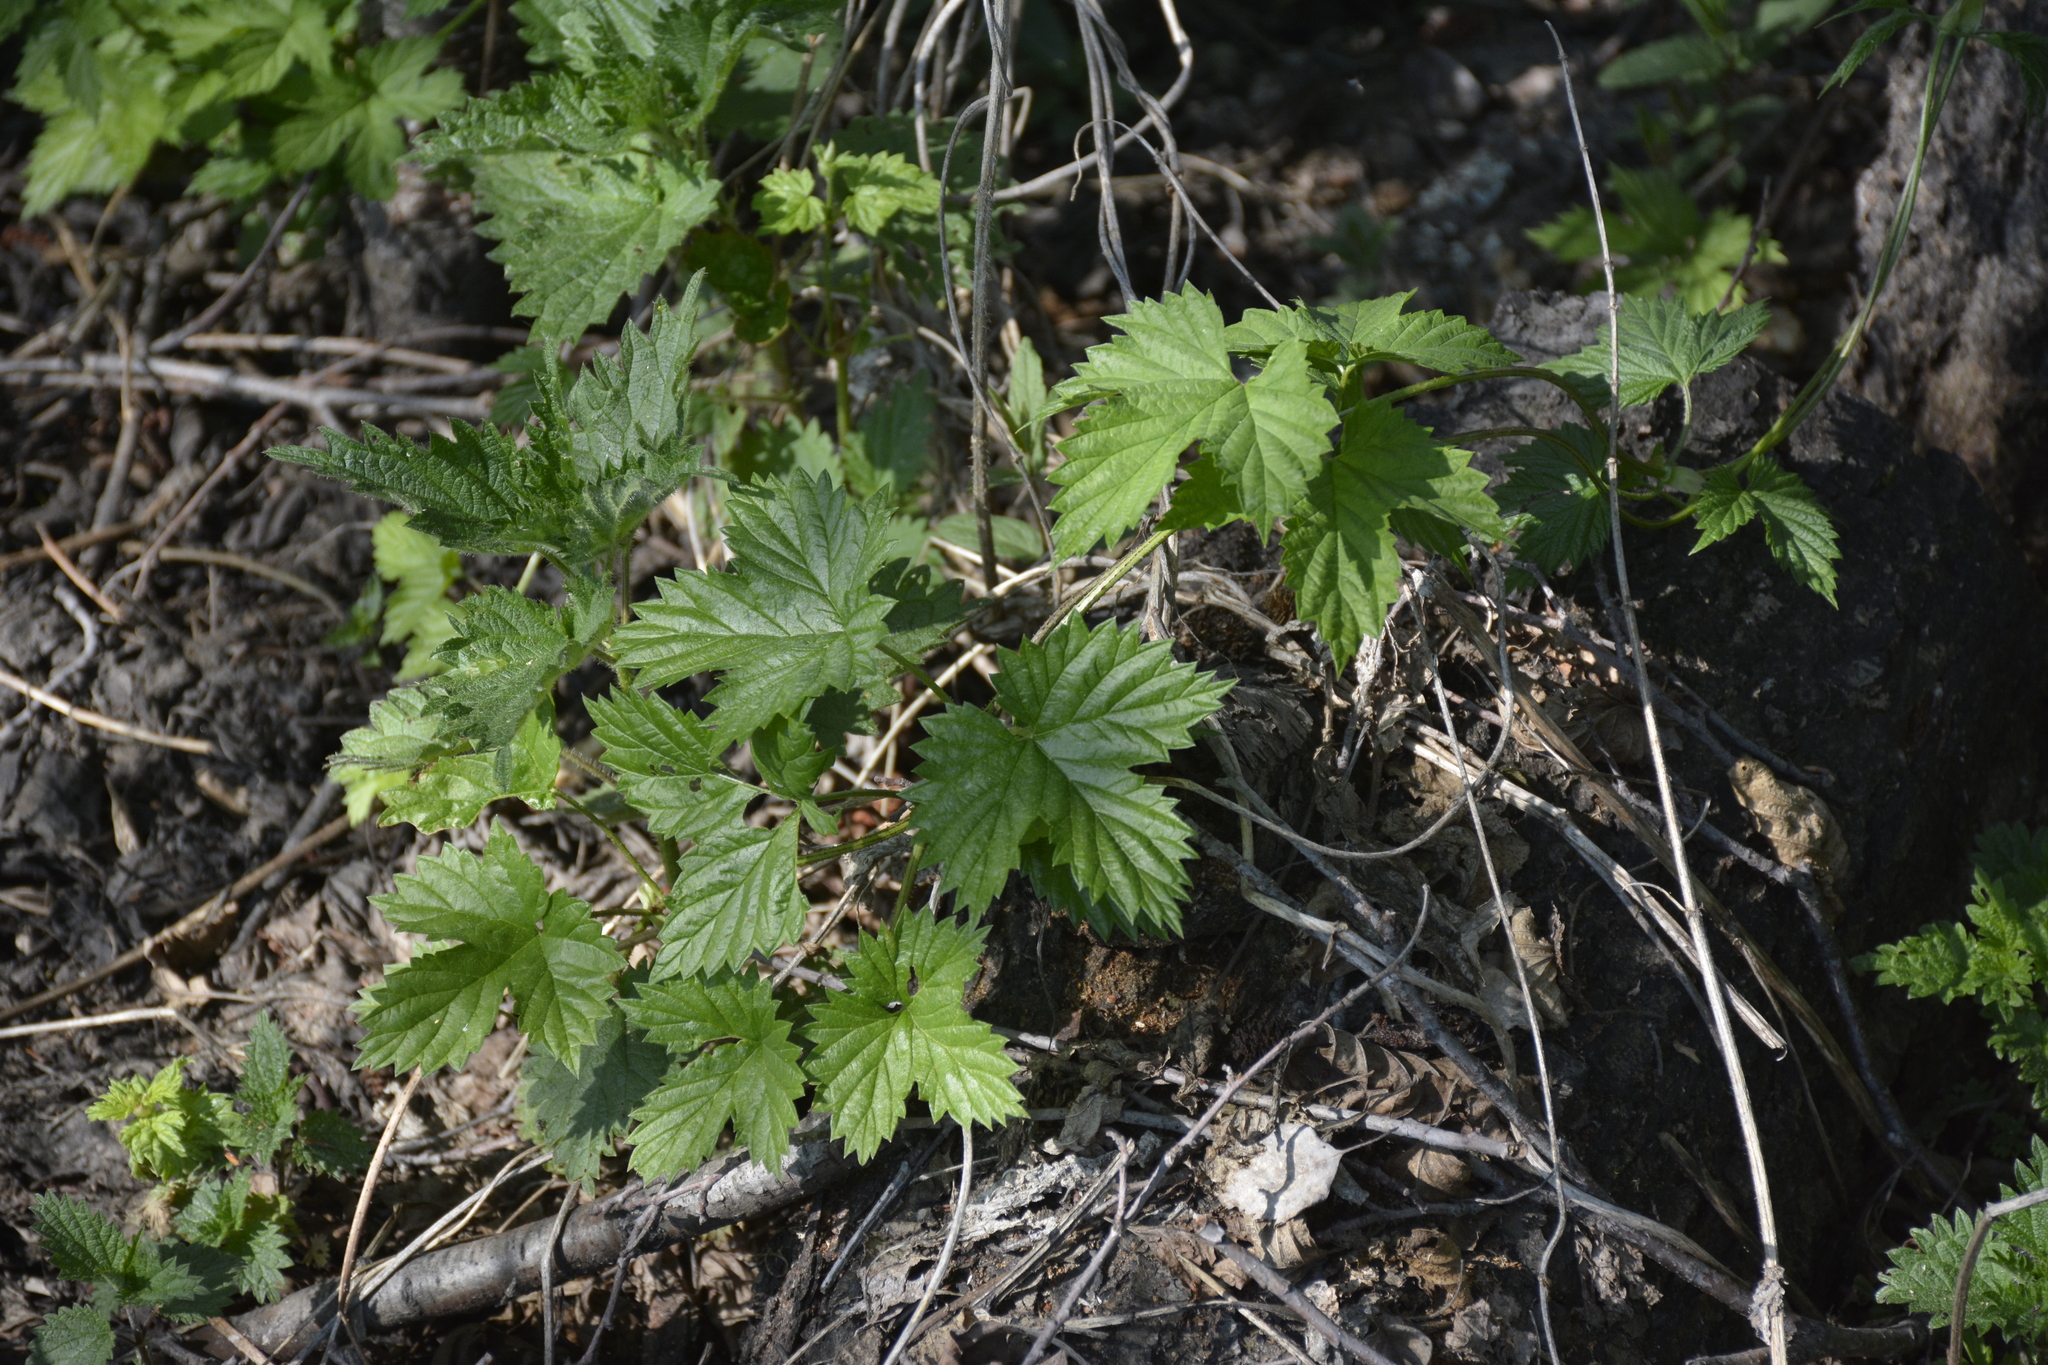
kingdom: Plantae
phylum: Tracheophyta
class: Magnoliopsida
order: Rosales
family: Cannabaceae
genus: Humulus
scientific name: Humulus lupulus
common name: Hop
